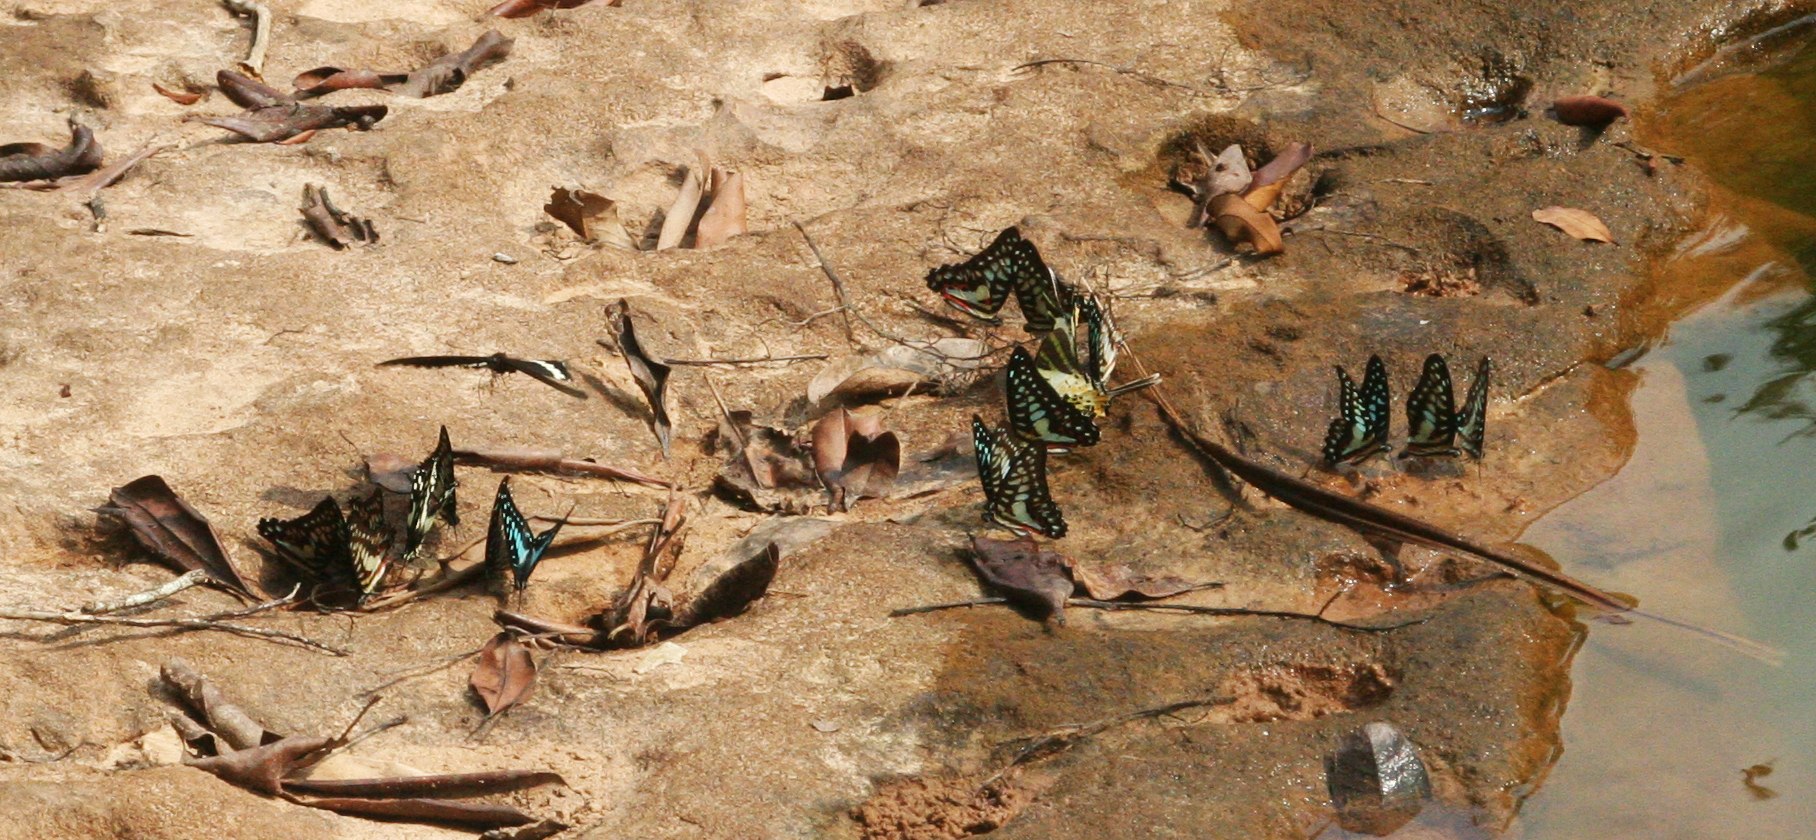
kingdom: Animalia
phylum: Arthropoda
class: Insecta
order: Lepidoptera
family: Papilionidae
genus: Graphium
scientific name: Graphium antiphates
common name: Fivebar swordtail
